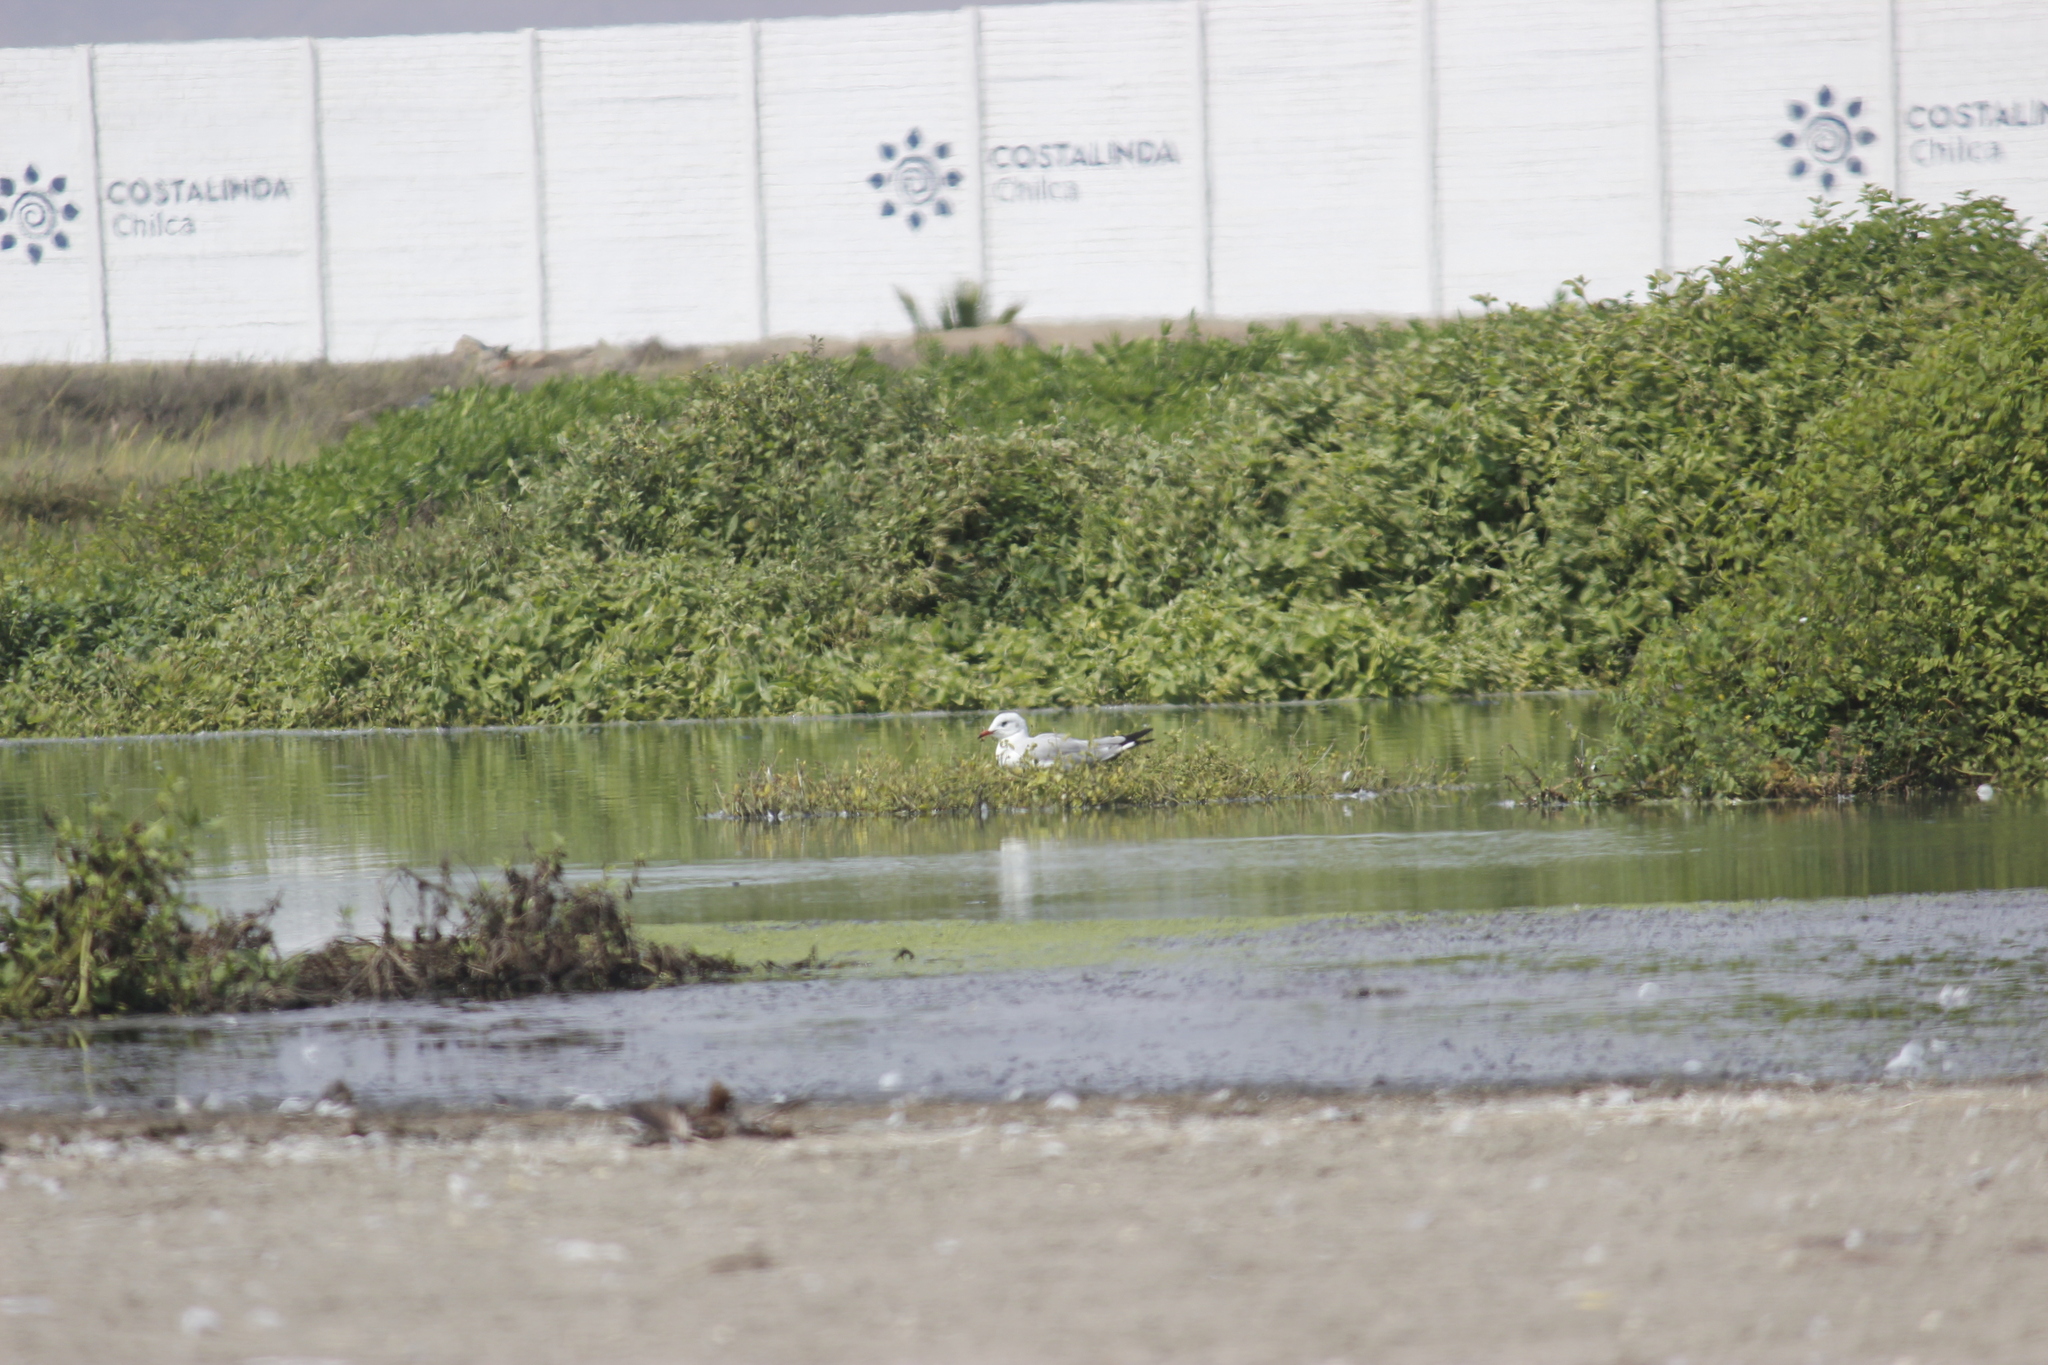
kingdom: Animalia
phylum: Chordata
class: Aves
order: Charadriiformes
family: Laridae
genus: Chroicocephalus
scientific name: Chroicocephalus cirrocephalus
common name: Grey-headed gull
